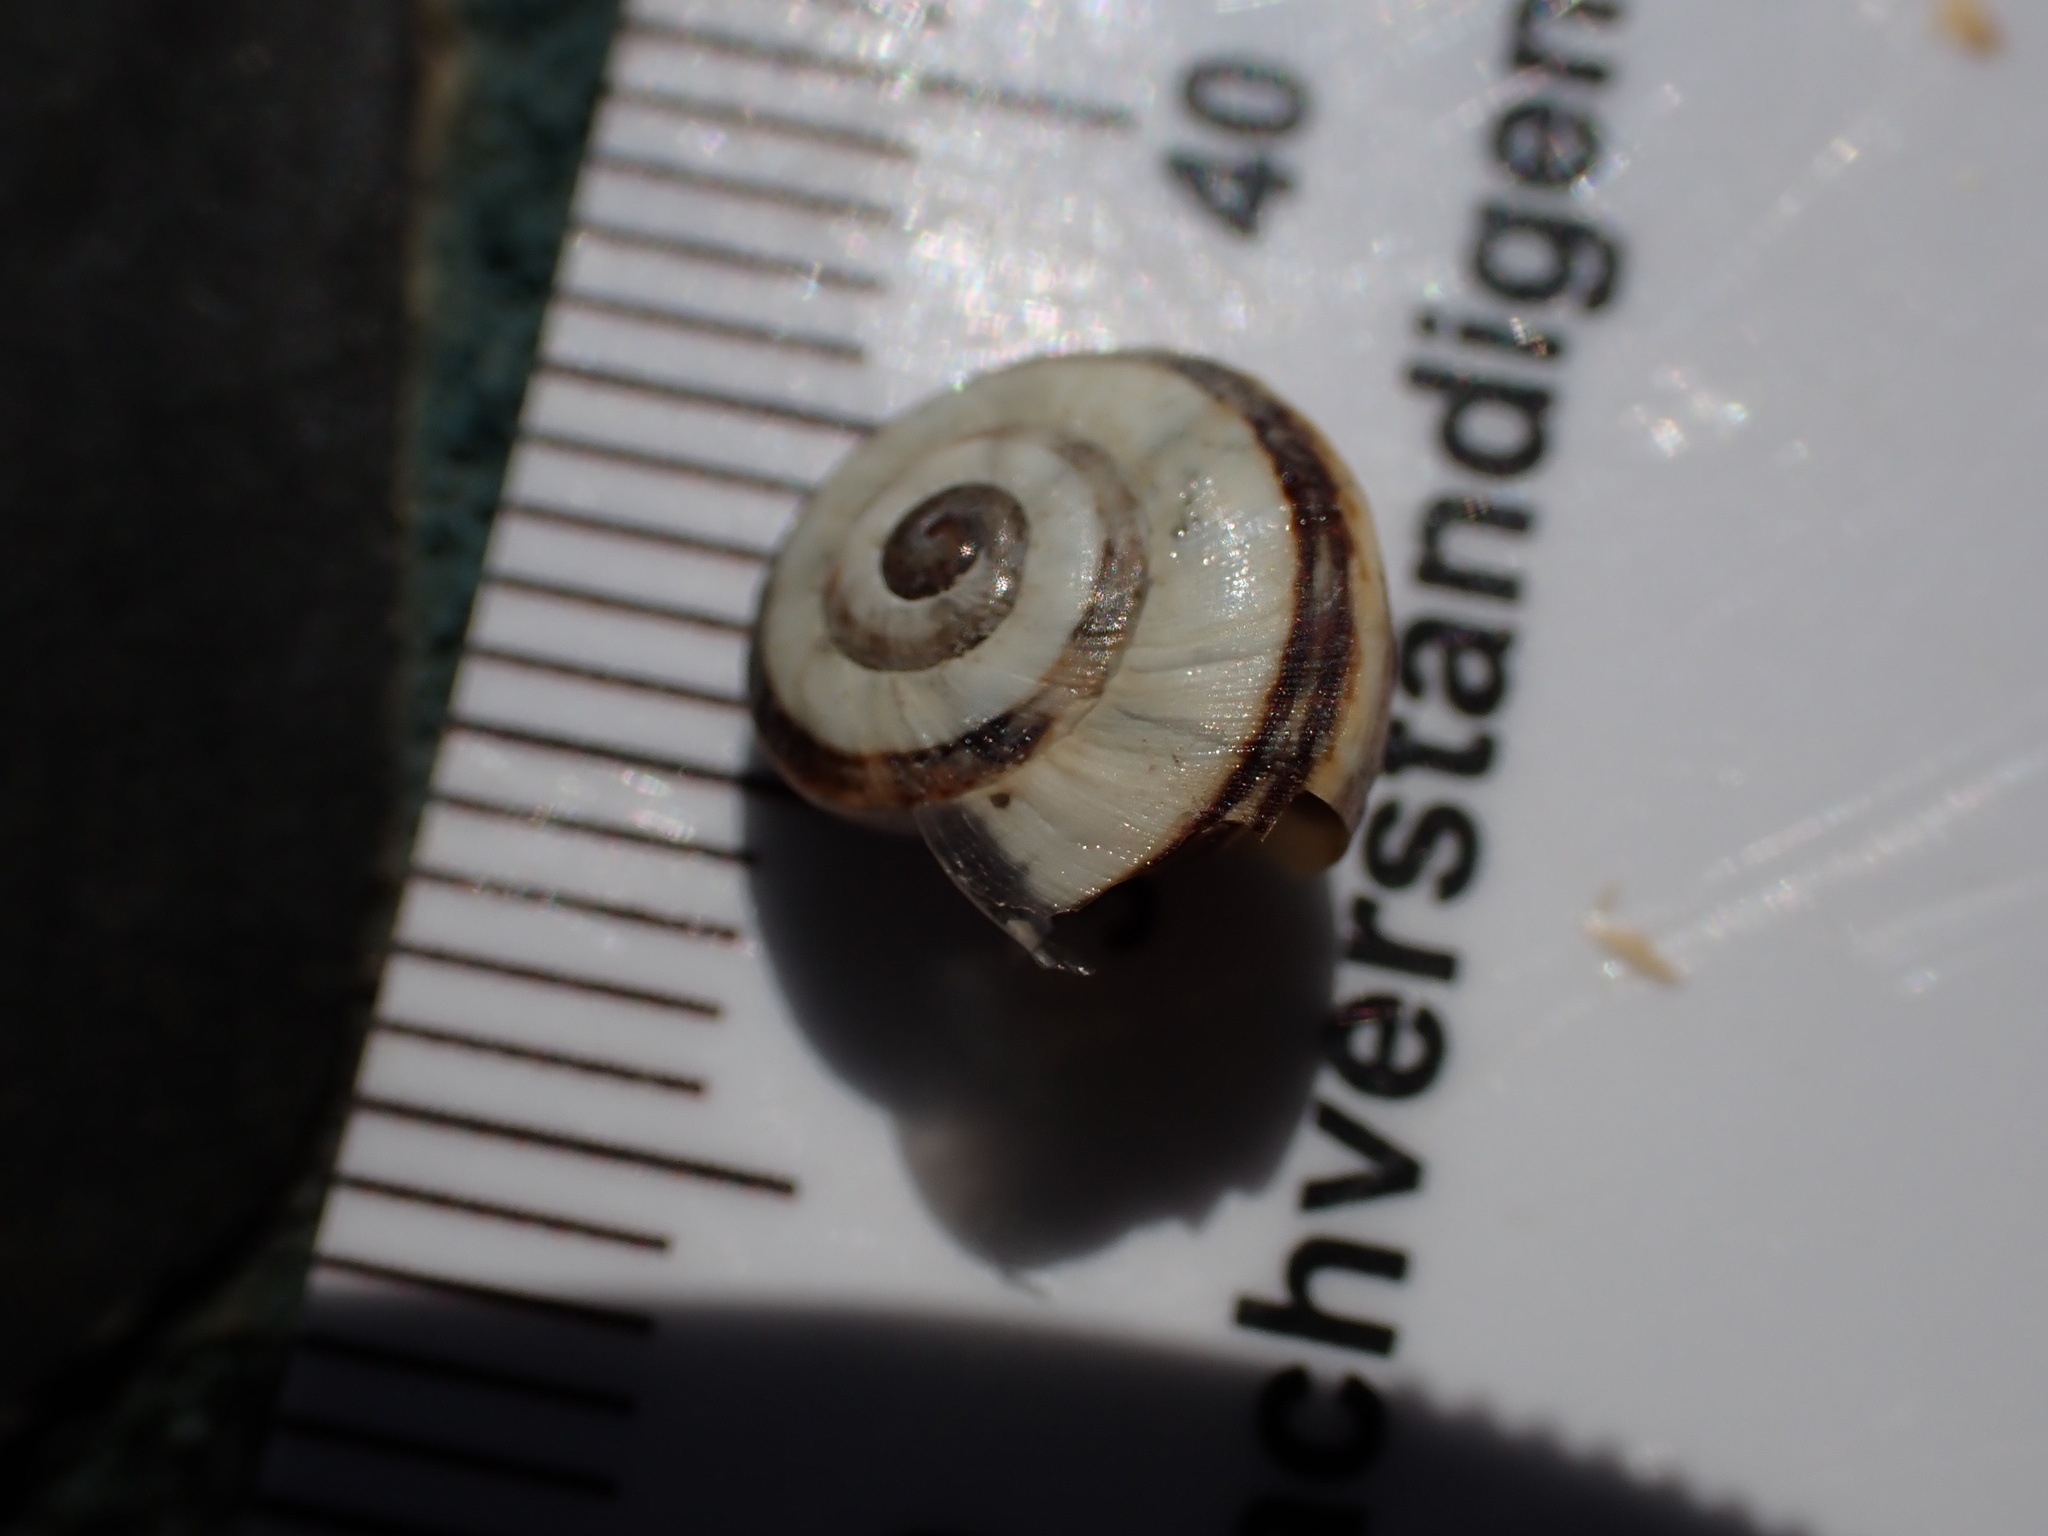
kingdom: Animalia
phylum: Mollusca
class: Gastropoda
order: Stylommatophora
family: Helicidae
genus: Theba
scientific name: Theba pisana
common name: White snail
